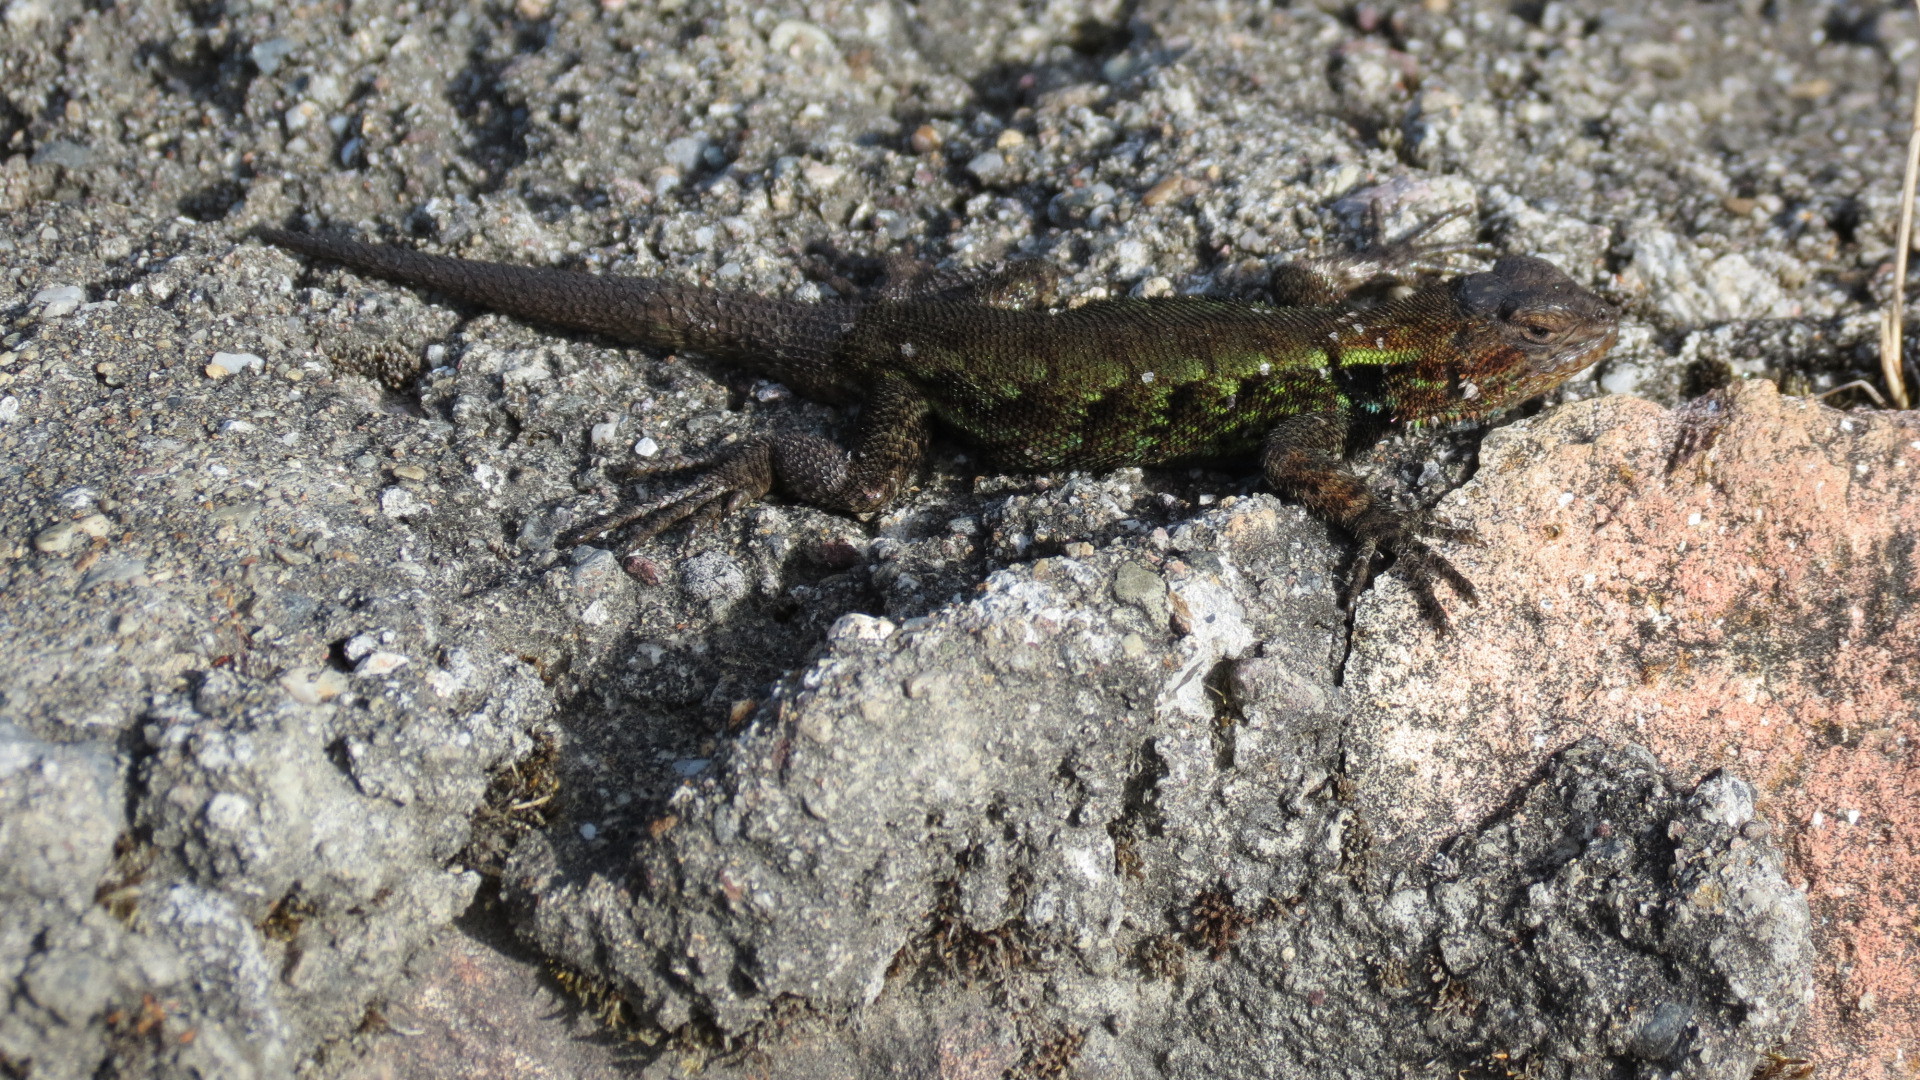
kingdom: Animalia
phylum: Chordata
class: Squamata
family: Phrynosomatidae
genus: Sceloporus
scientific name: Sceloporus grammicus
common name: Mesquite lizard
